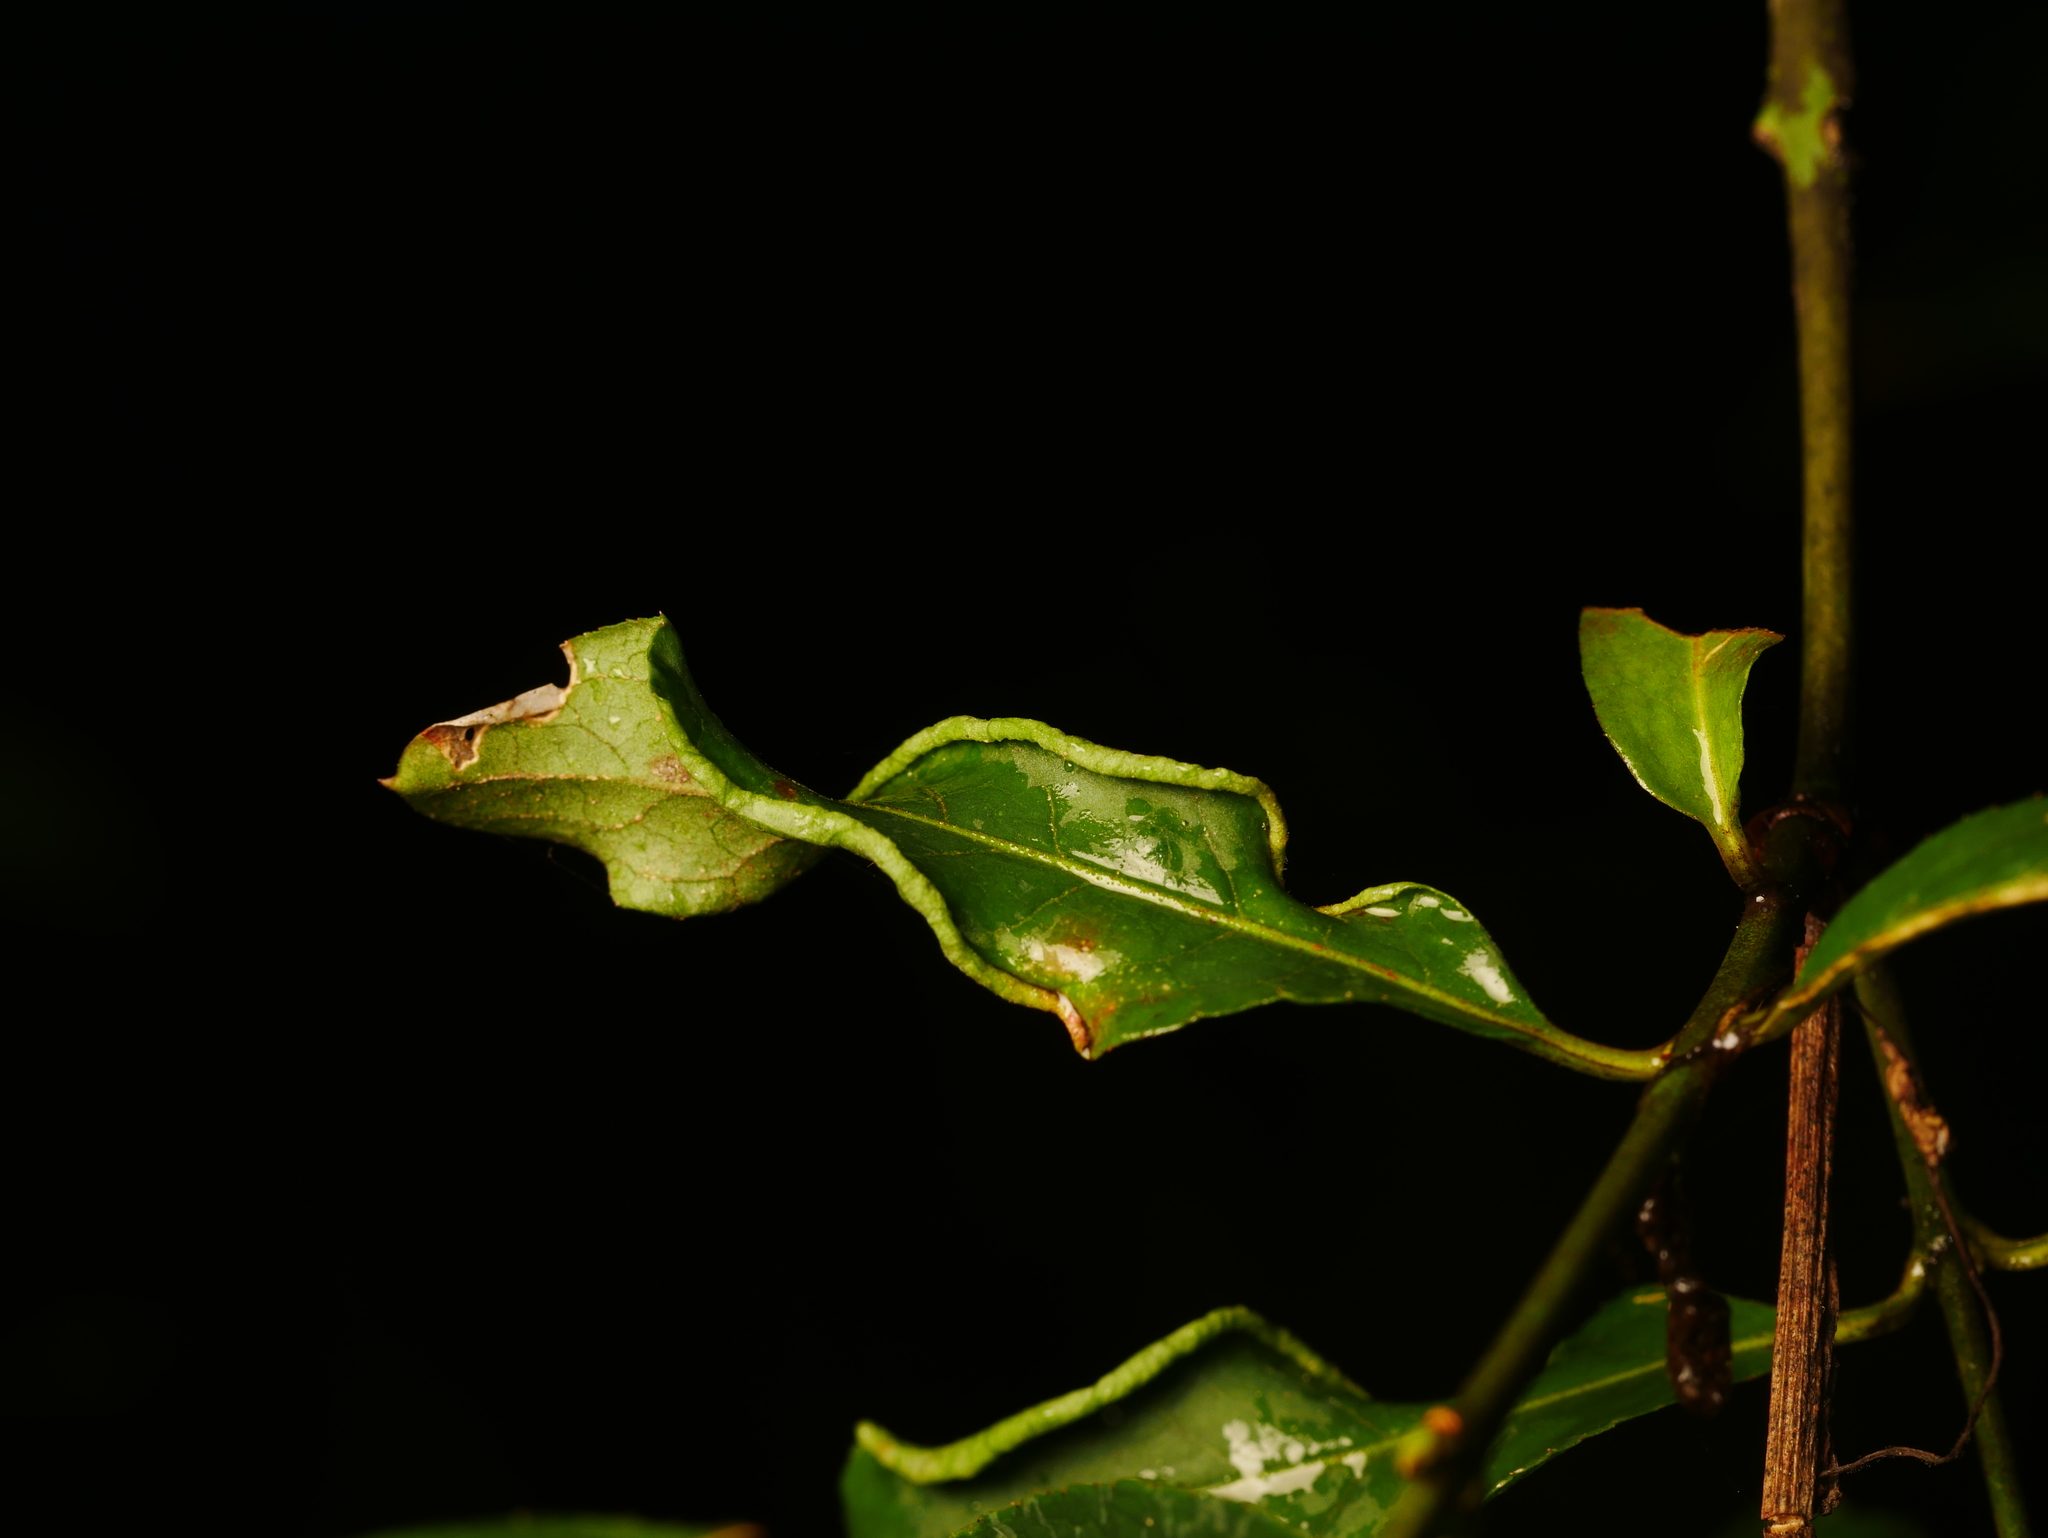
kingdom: Animalia
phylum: Arthropoda
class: Arachnida
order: Trombidiformes
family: Eriophyidae
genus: Stenacis
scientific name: Stenacis evonymi
